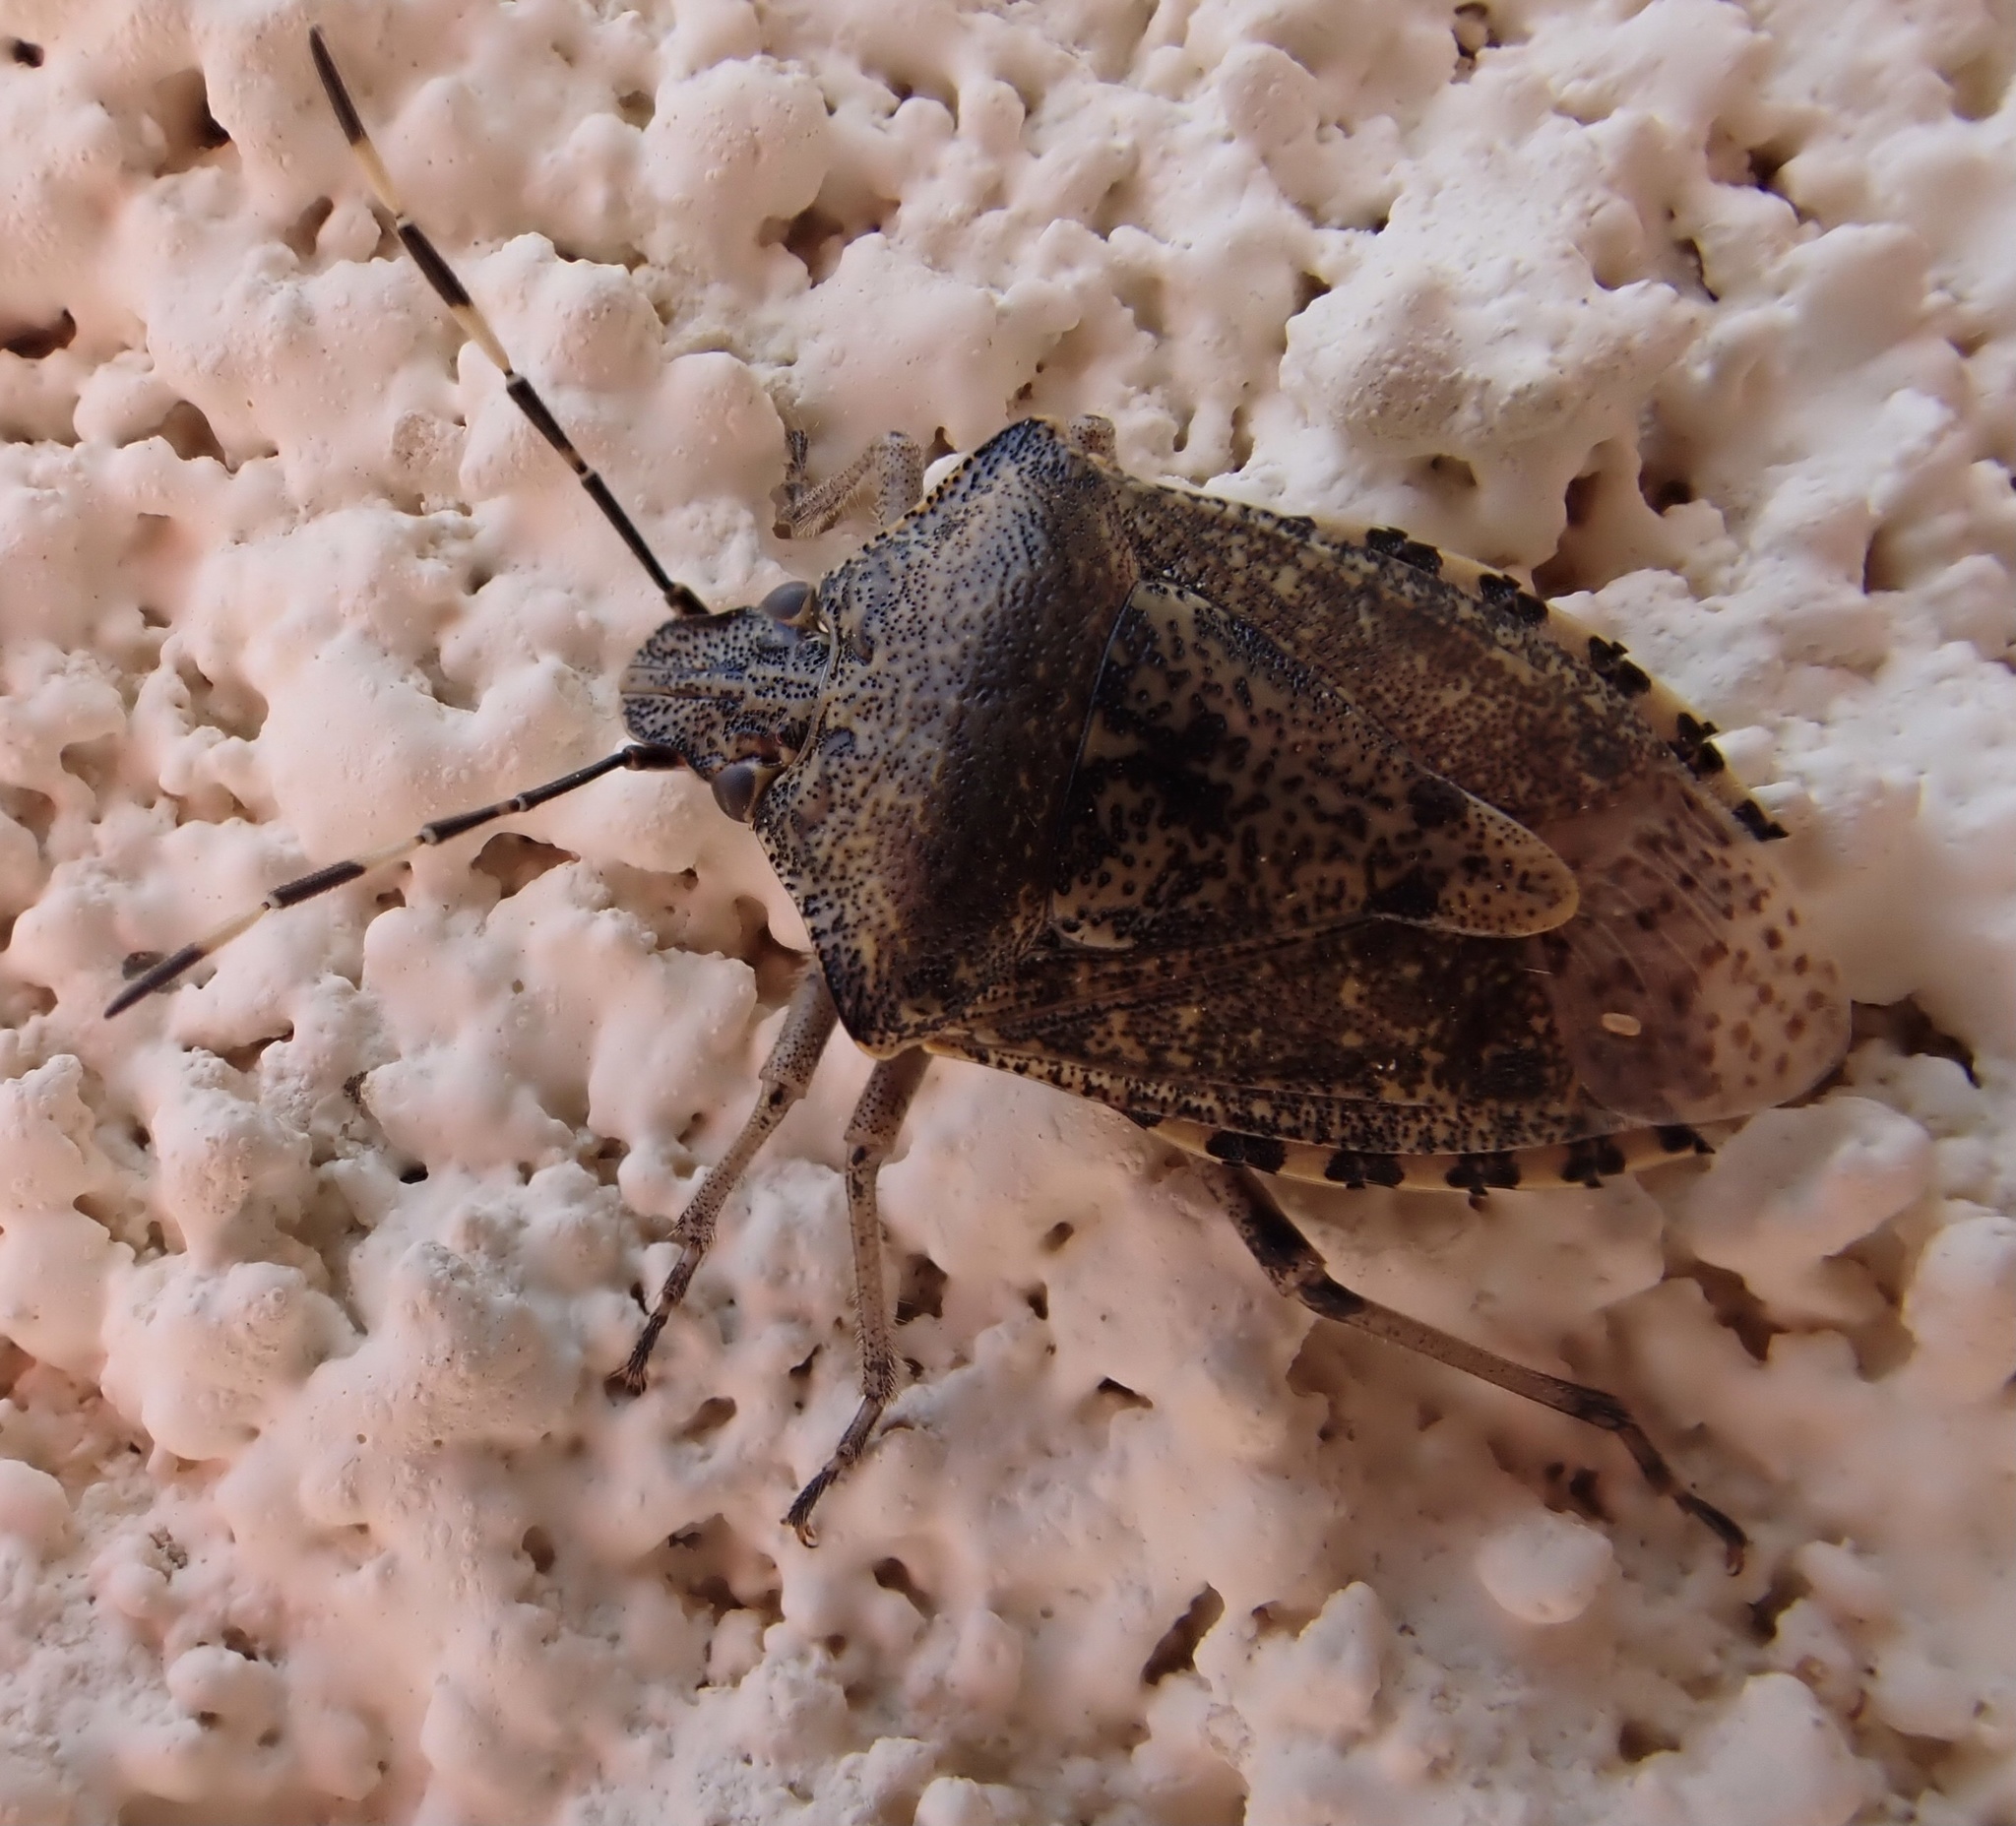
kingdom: Animalia
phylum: Arthropoda
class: Insecta
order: Hemiptera
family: Pentatomidae
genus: Rhaphigaster
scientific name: Rhaphigaster nebulosa
